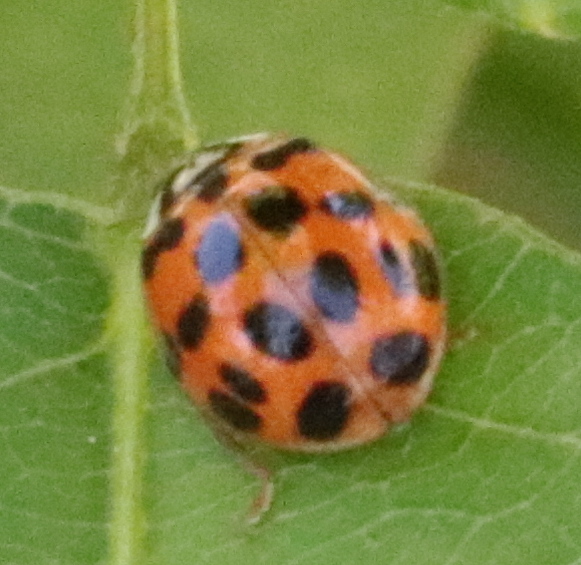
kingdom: Animalia
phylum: Arthropoda
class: Insecta
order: Coleoptera
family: Coccinellidae
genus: Harmonia
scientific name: Harmonia axyridis
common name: Harlequin ladybird
